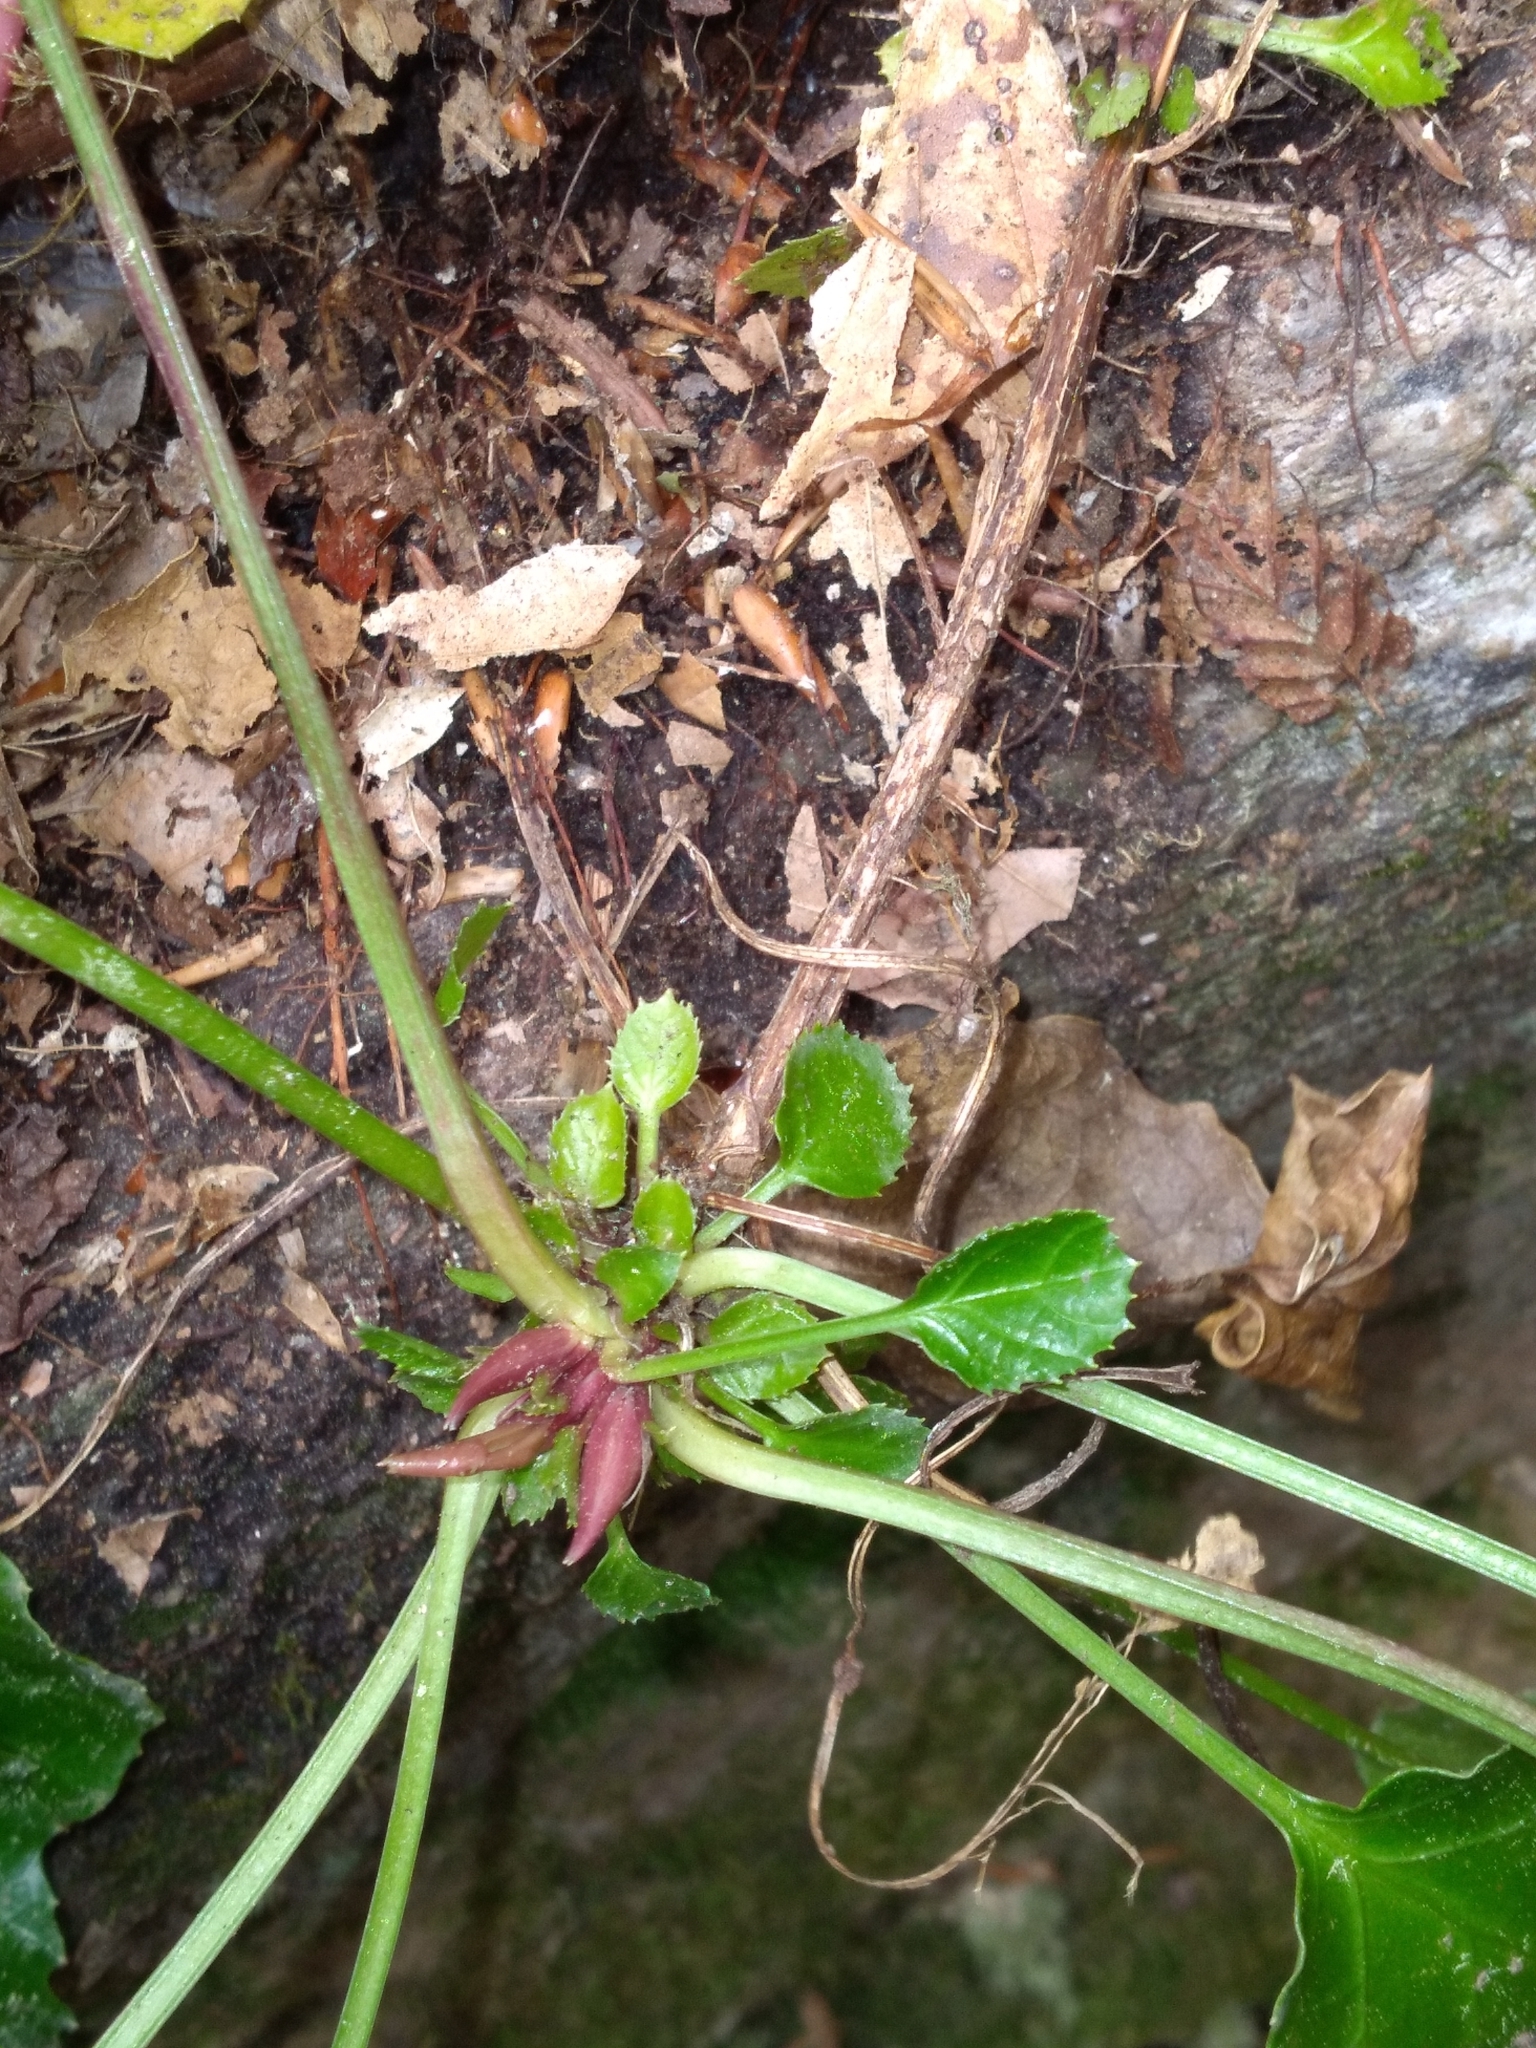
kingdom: Plantae
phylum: Tracheophyta
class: Magnoliopsida
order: Ericales
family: Diapensiaceae
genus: Shortia
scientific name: Shortia galacifolia
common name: Shortia
